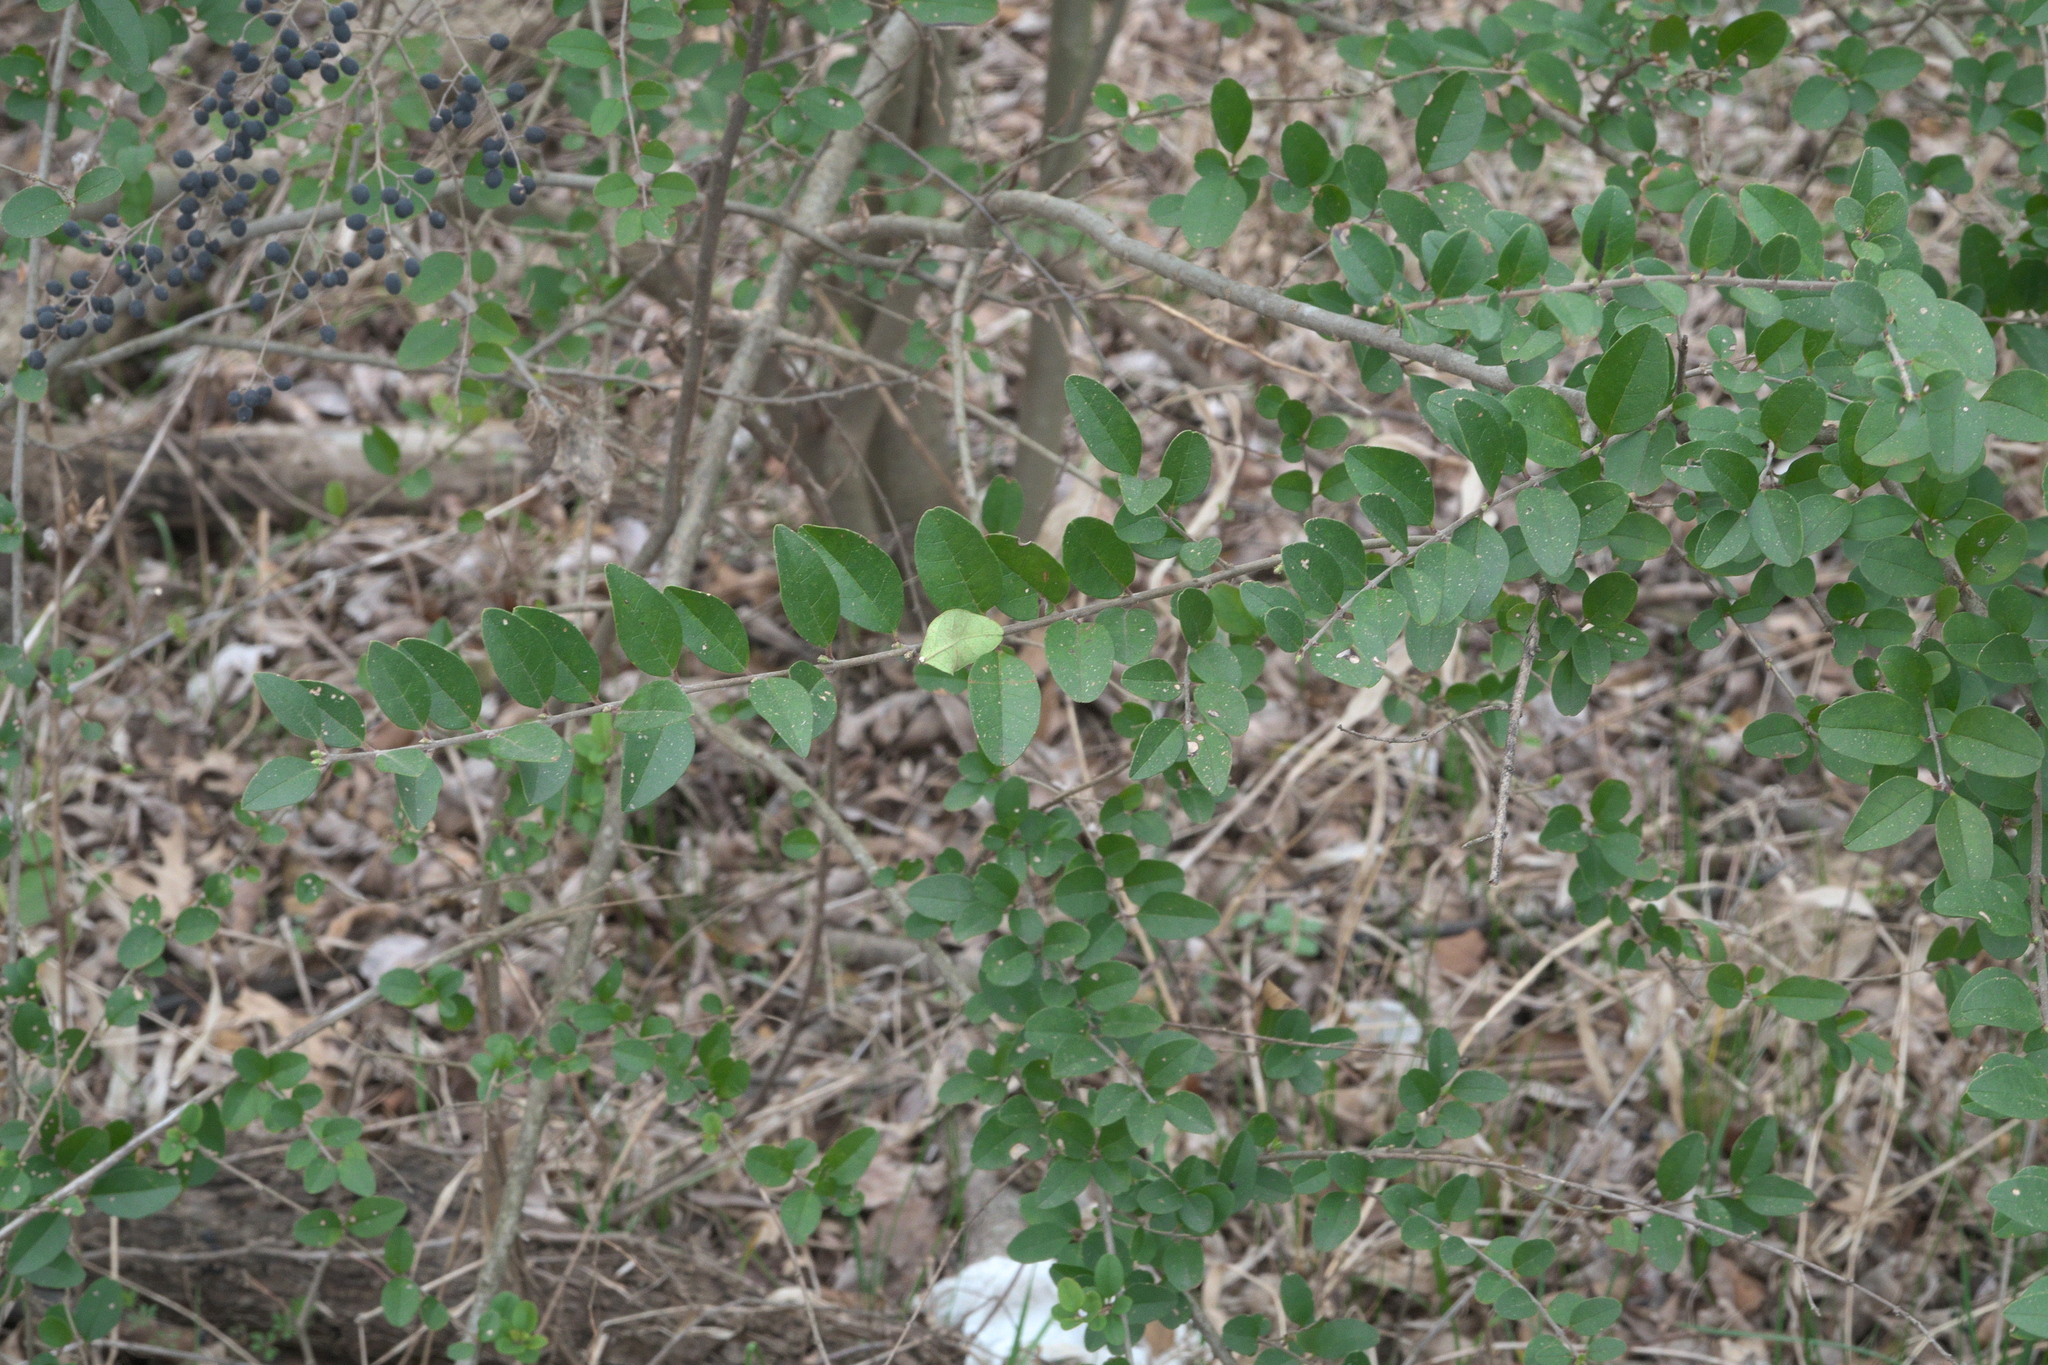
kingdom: Plantae
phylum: Tracheophyta
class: Magnoliopsida
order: Lamiales
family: Oleaceae
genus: Ligustrum
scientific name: Ligustrum sinense
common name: Chinese privet
